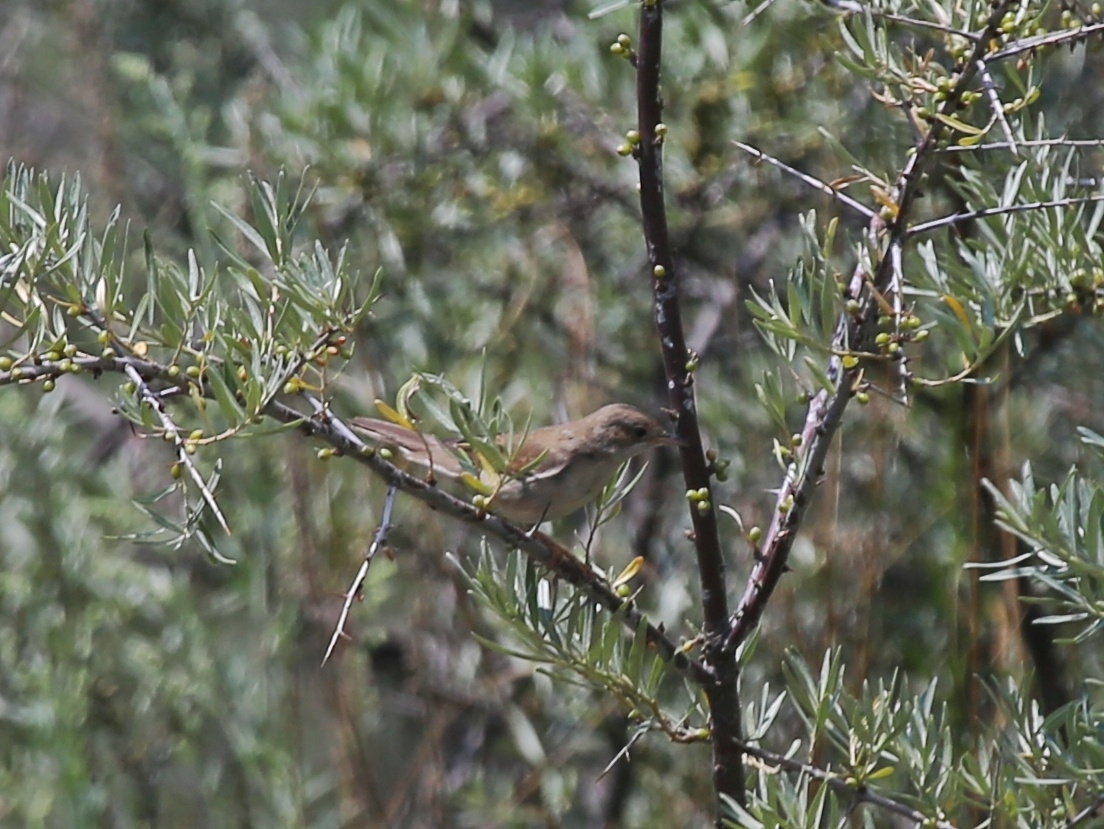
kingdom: Animalia
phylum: Chordata
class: Aves
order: Passeriformes
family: Sylviidae
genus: Sylvia
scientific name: Sylvia communis
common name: Common whitethroat
